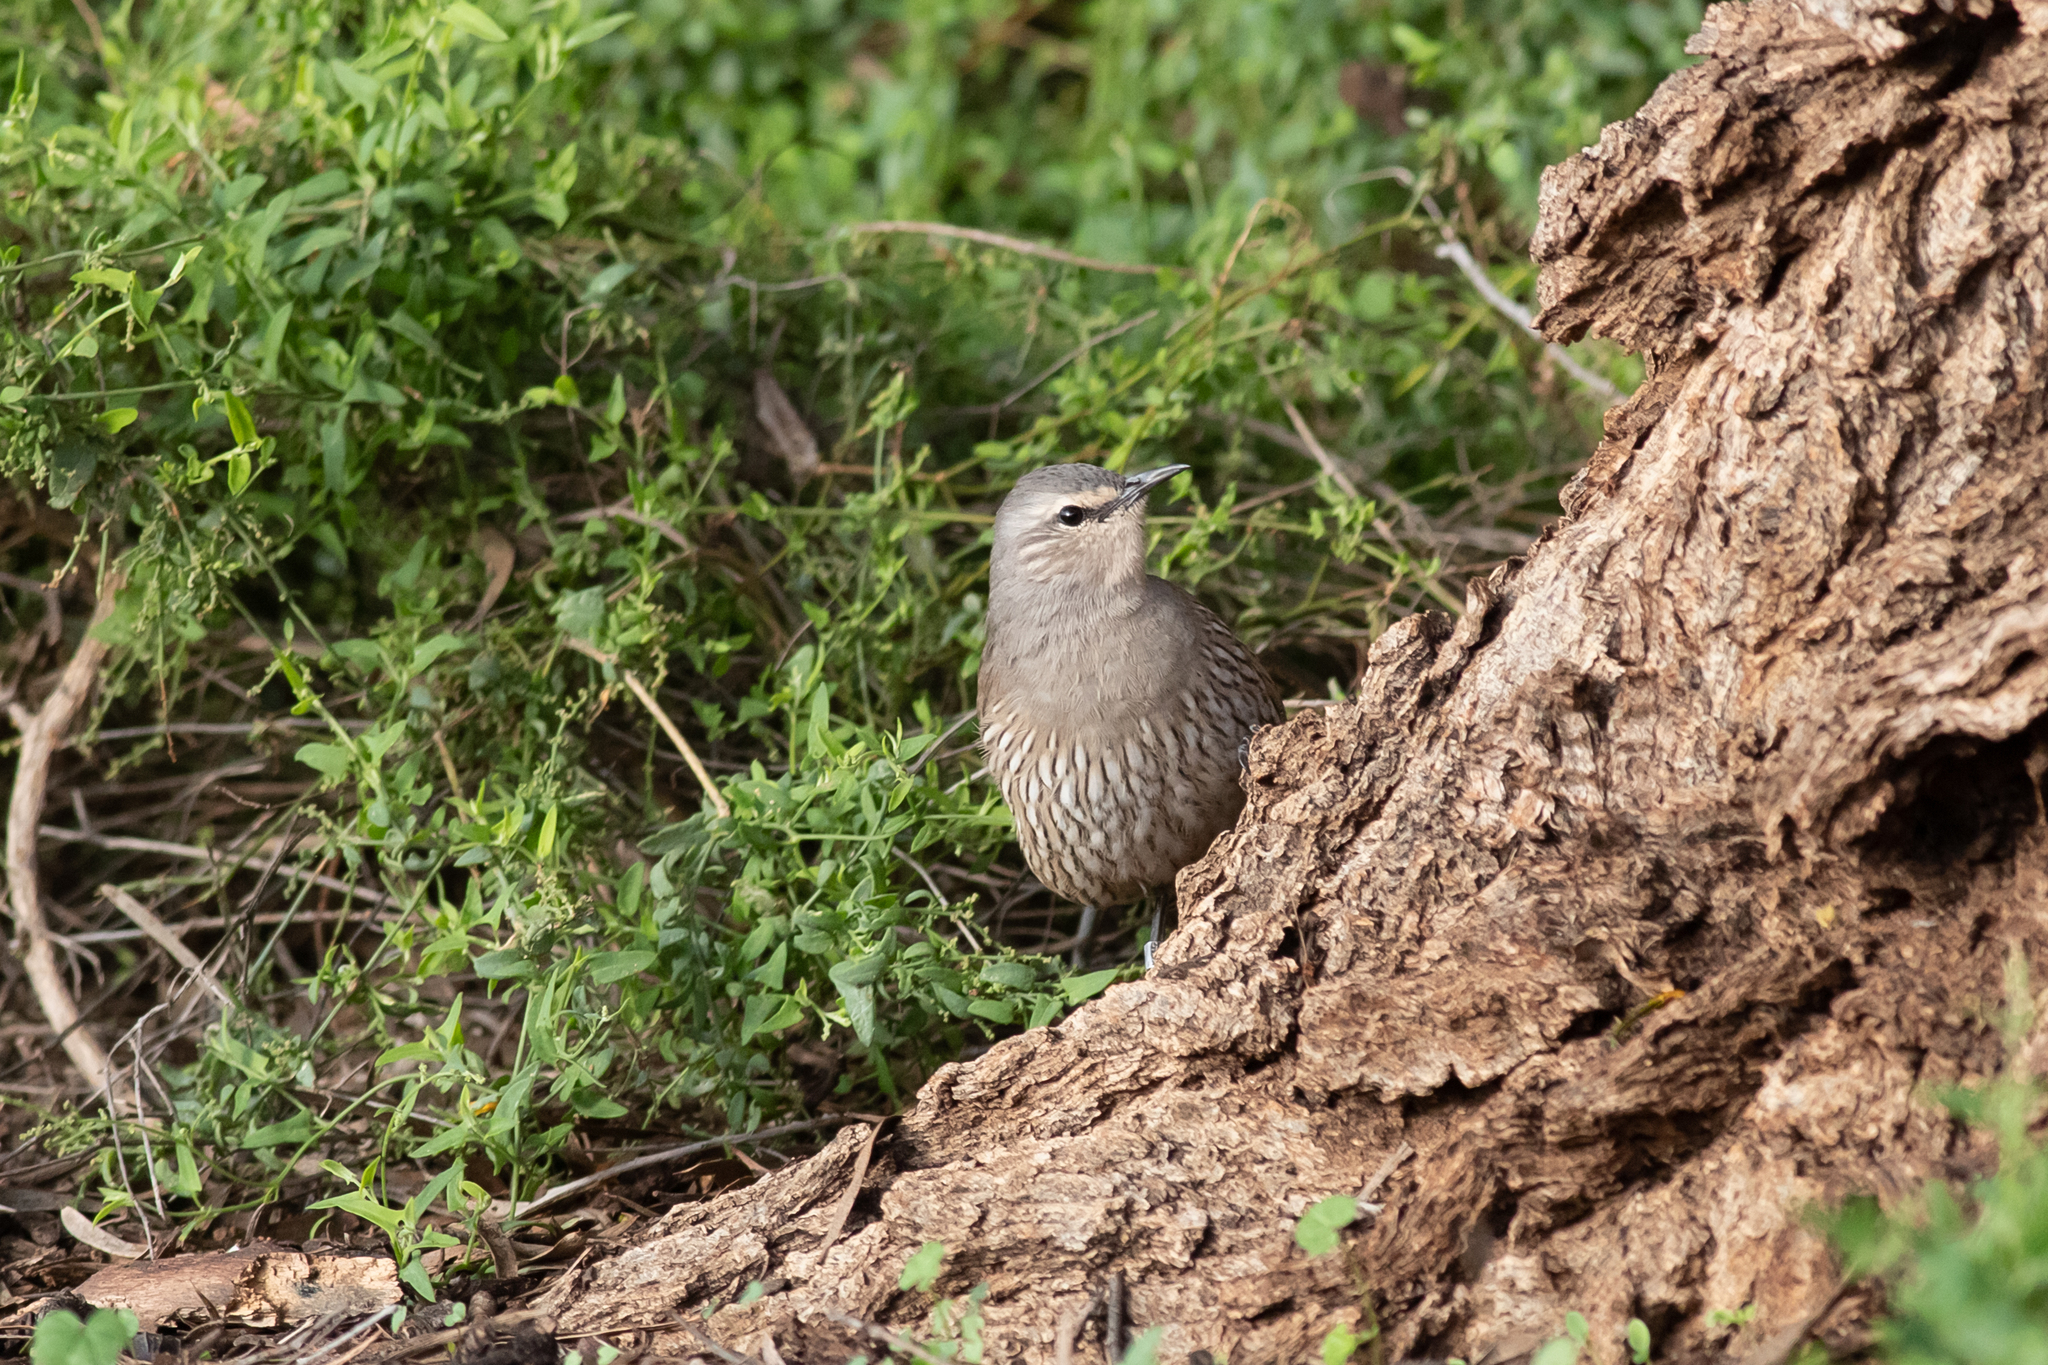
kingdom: Animalia
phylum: Chordata
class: Aves
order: Passeriformes
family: Climacteridae
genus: Climacteris
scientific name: Climacteris picumnus
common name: Brown treecreeper
